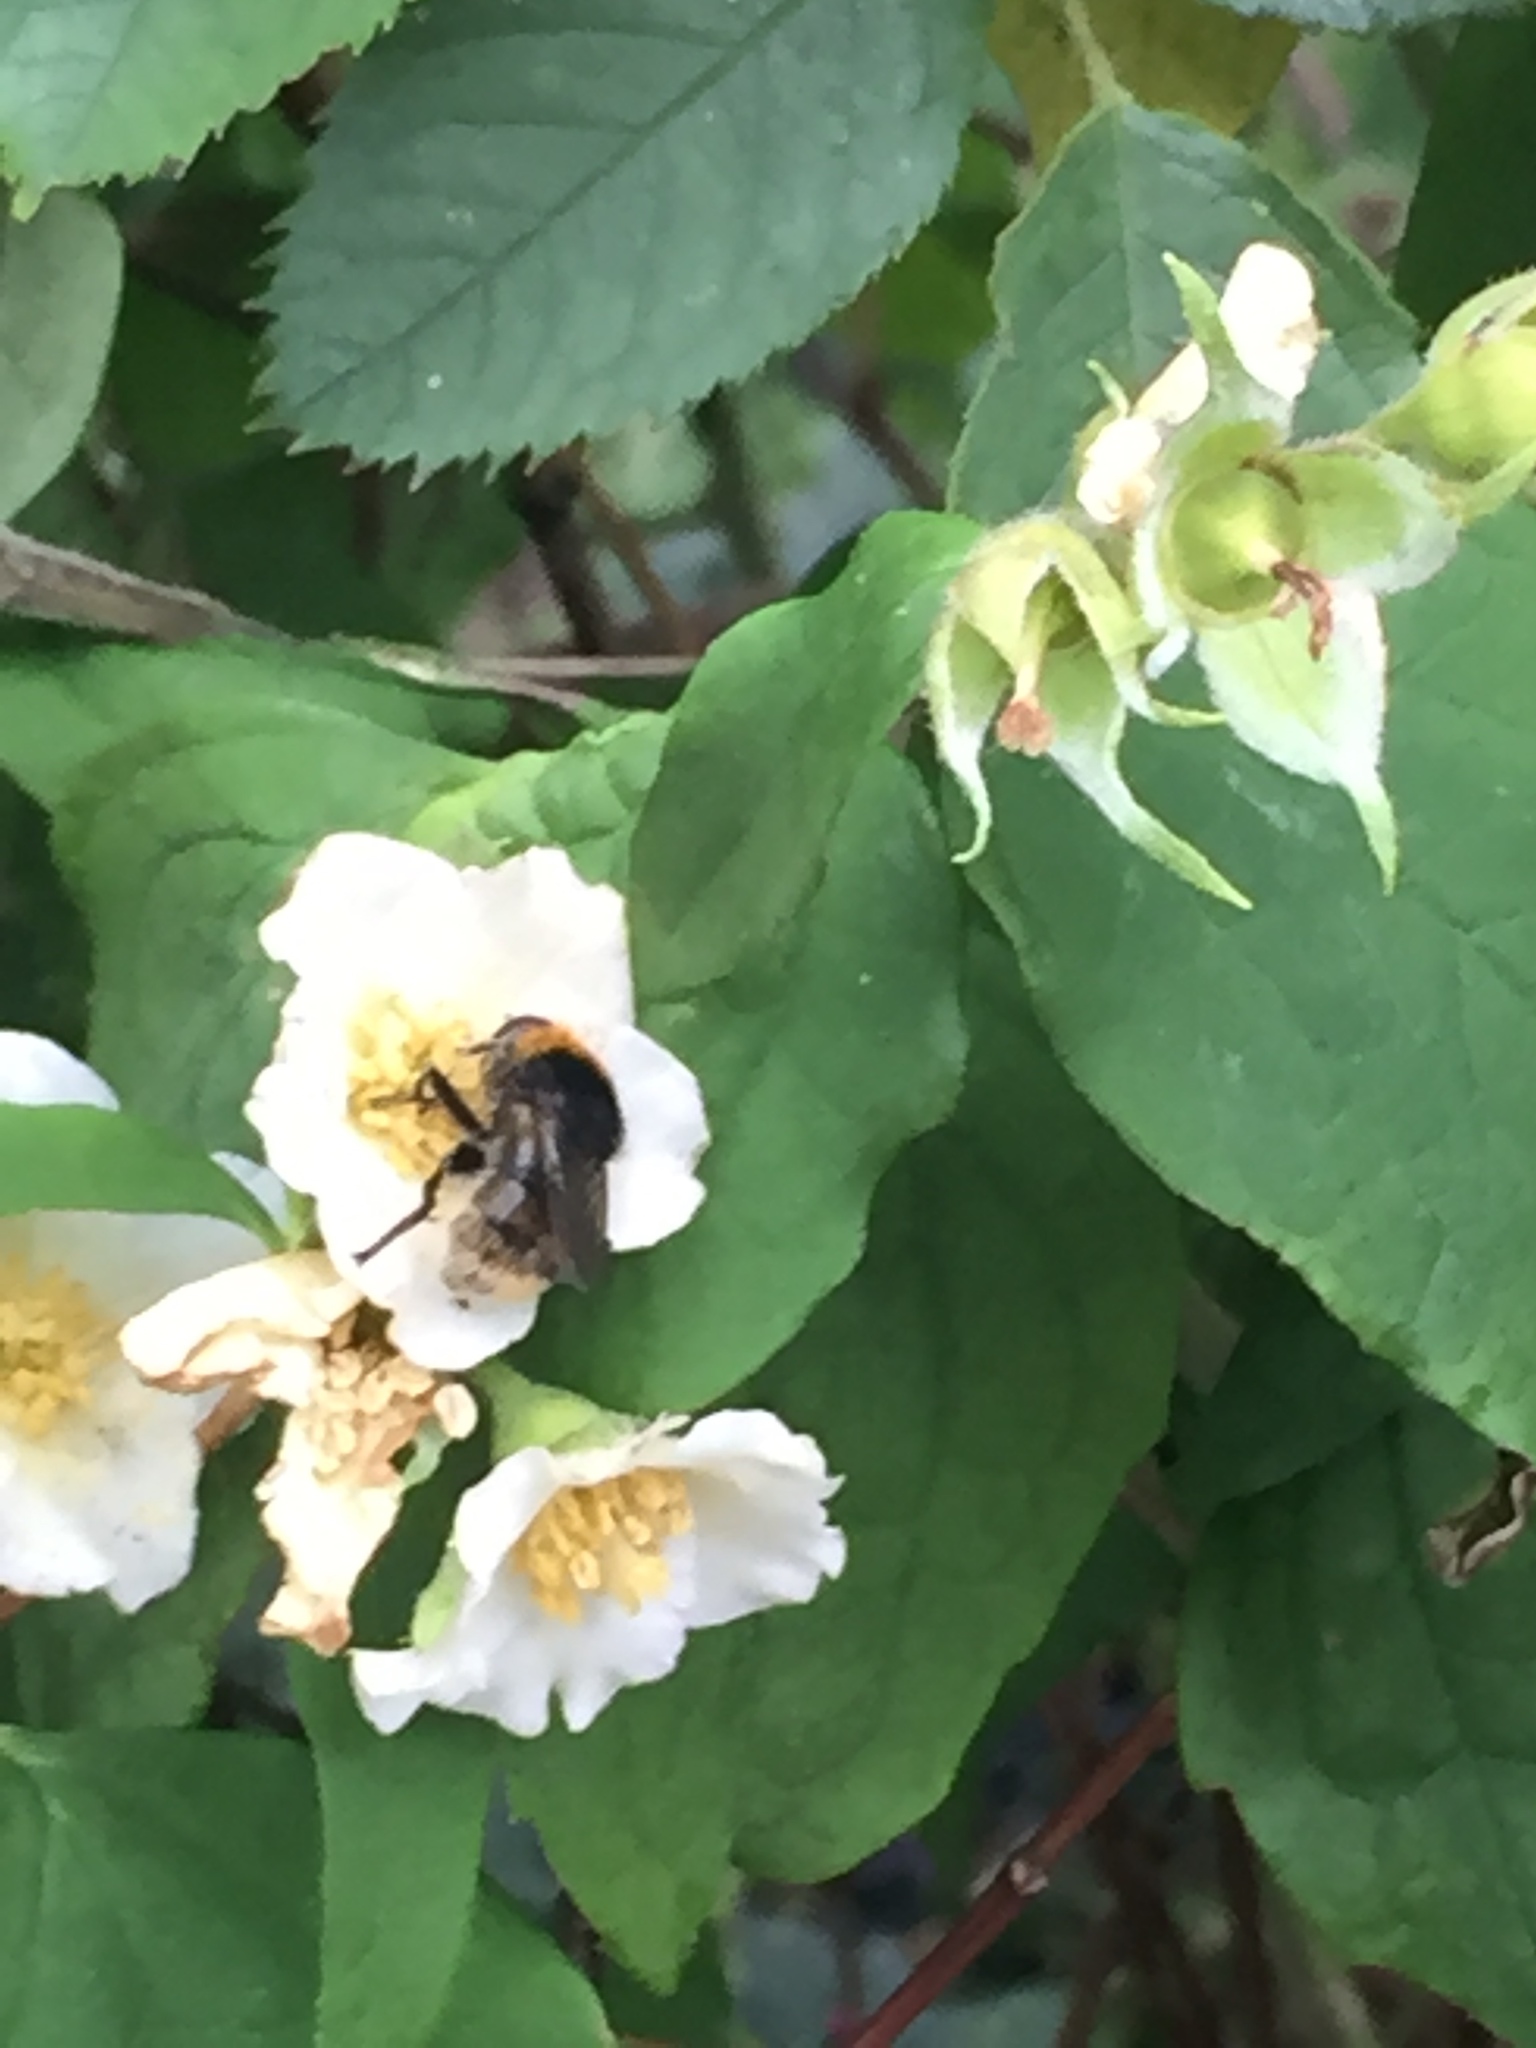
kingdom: Animalia
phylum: Arthropoda
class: Insecta
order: Diptera
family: Syrphidae
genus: Merodon
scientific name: Merodon equestris
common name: Greater bulb-fly
